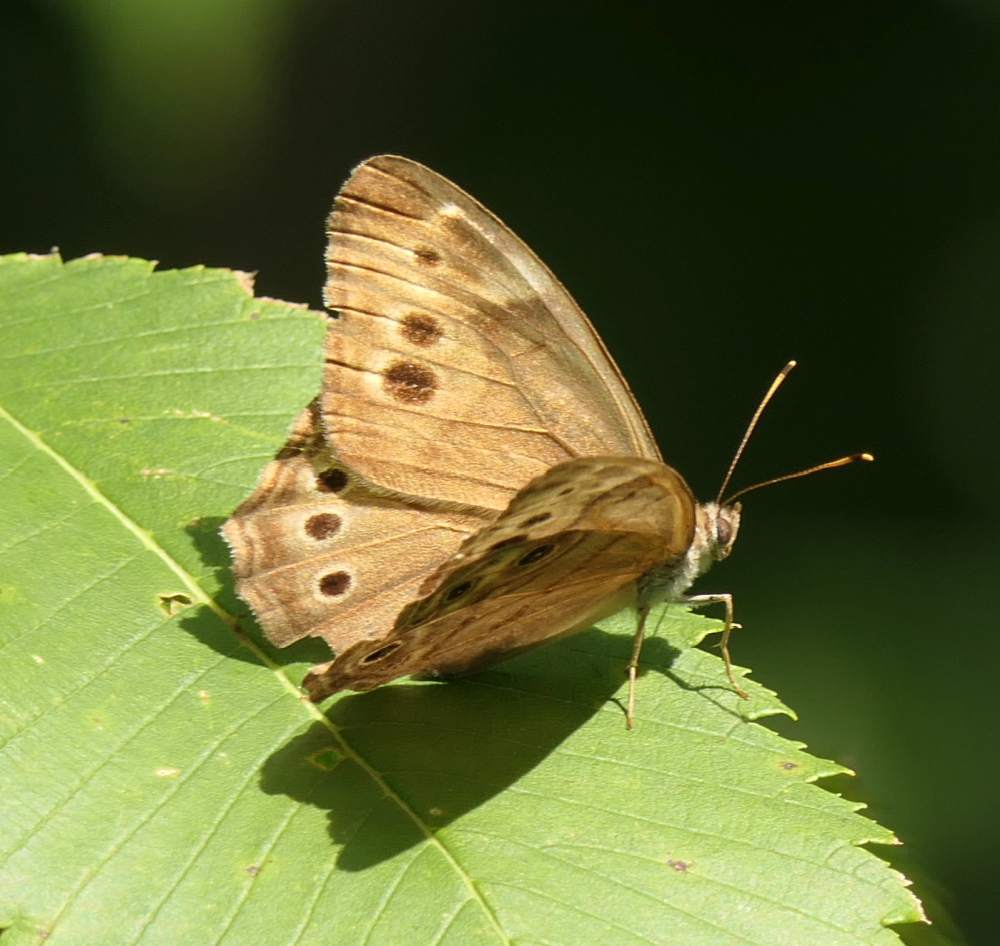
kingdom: Animalia
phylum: Arthropoda
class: Insecta
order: Lepidoptera
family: Nymphalidae
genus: Lethe
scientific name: Lethe anthedon
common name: Northern pearly-eye
